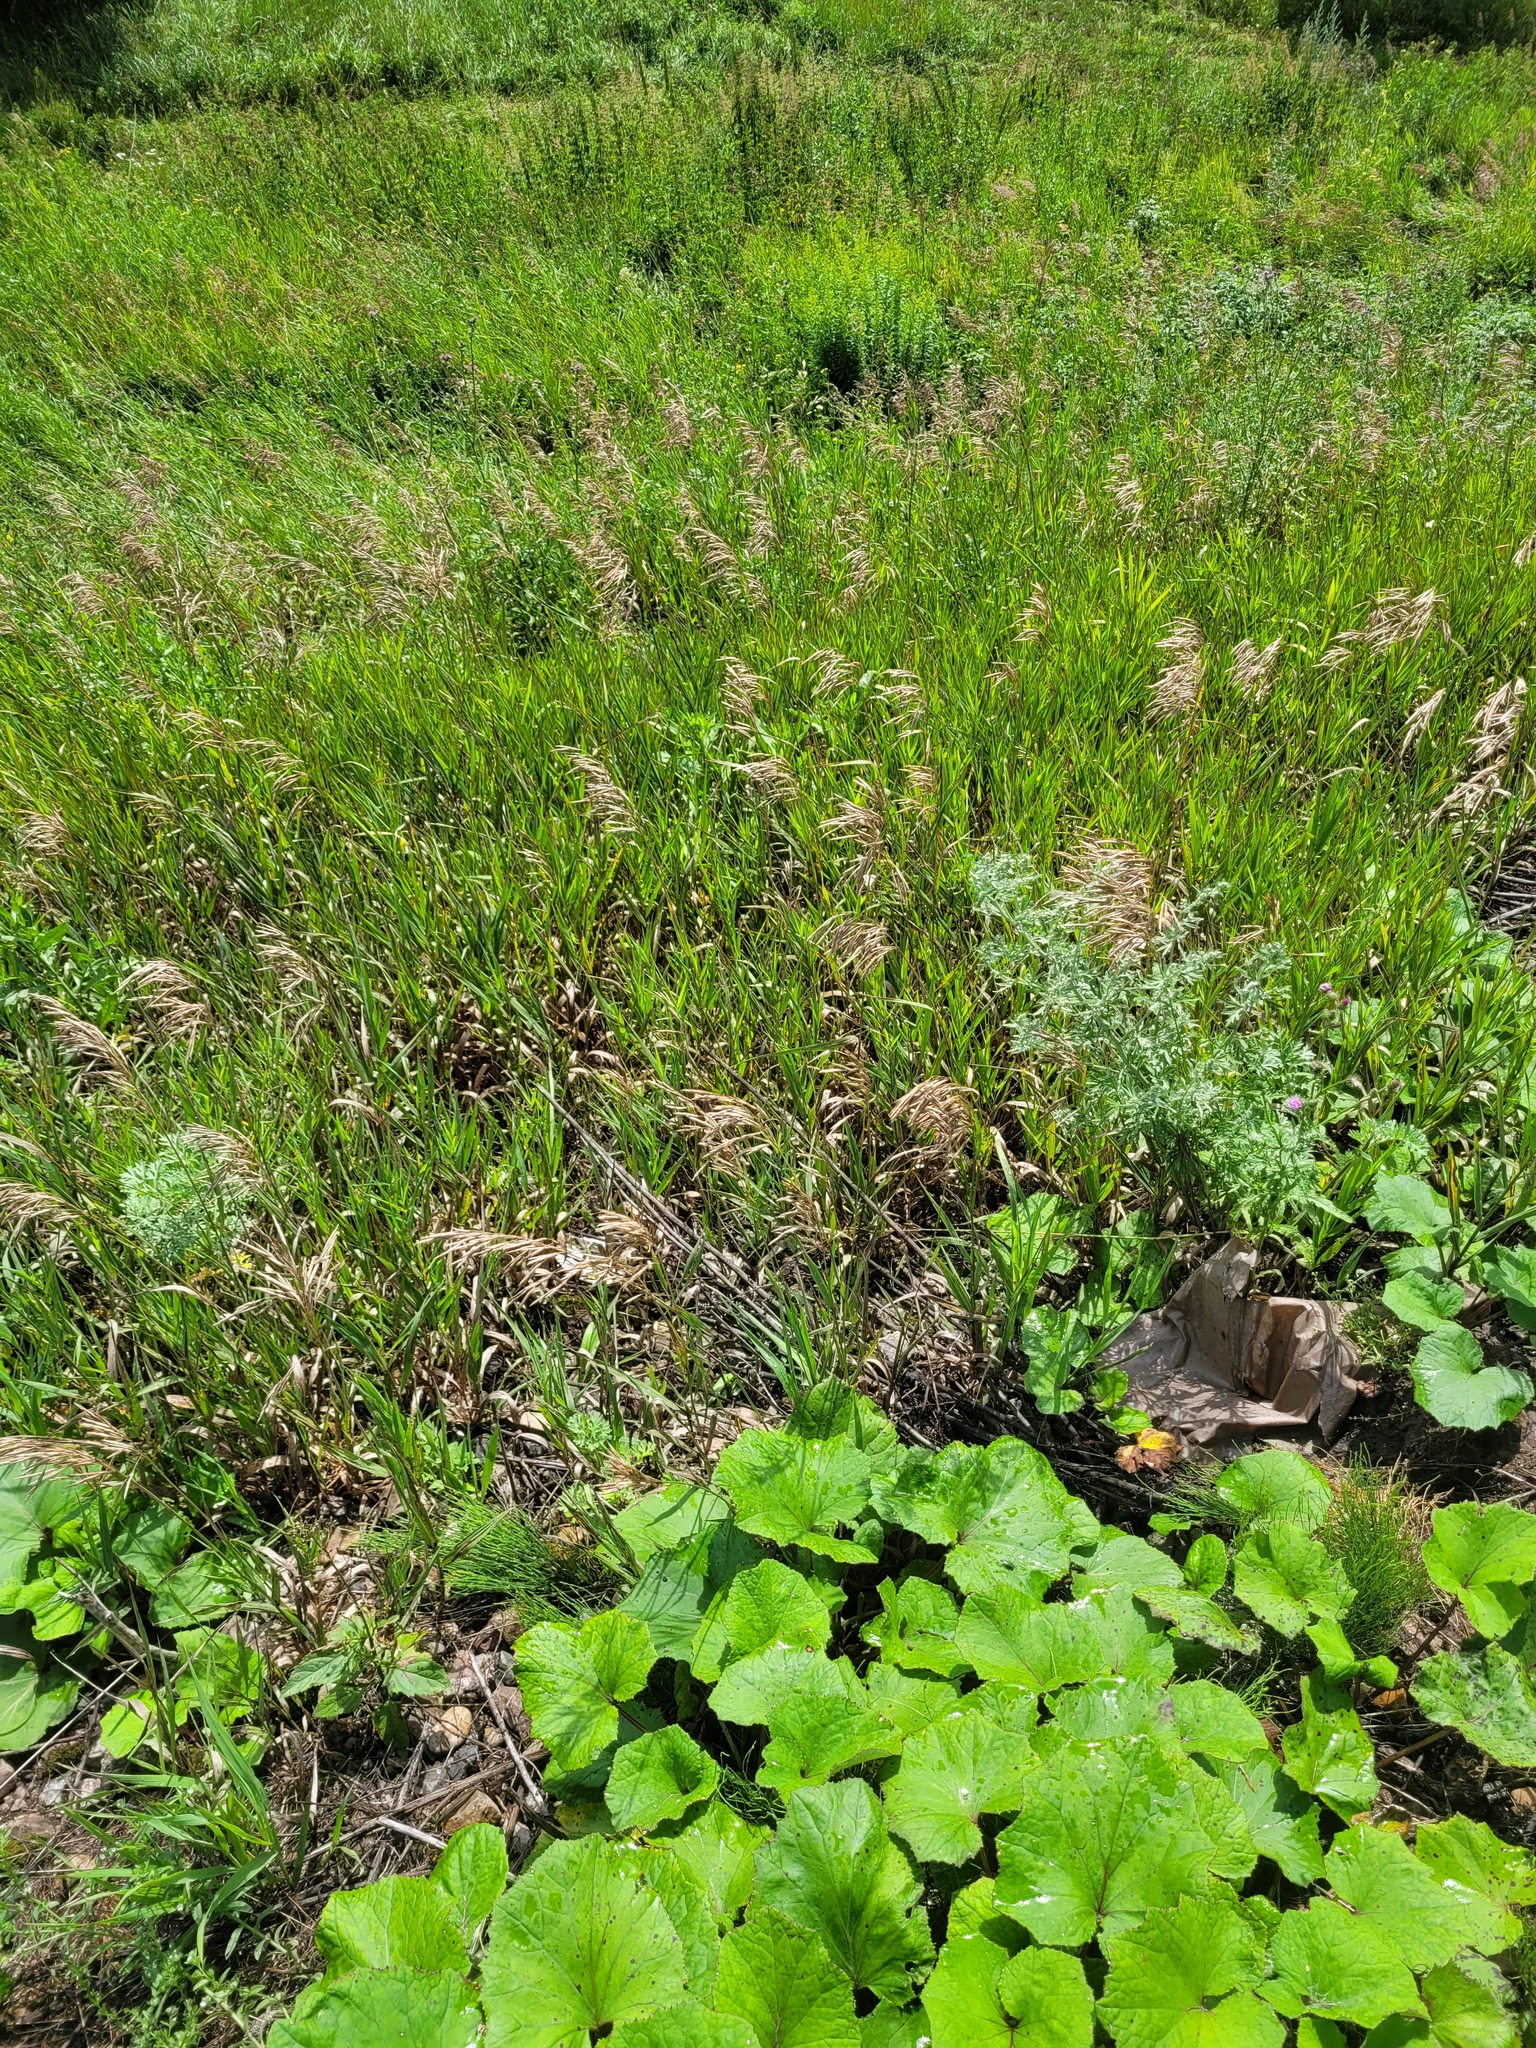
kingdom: Plantae
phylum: Tracheophyta
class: Liliopsida
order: Poales
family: Poaceae
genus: Bromus
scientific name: Bromus inermis
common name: Smooth brome
